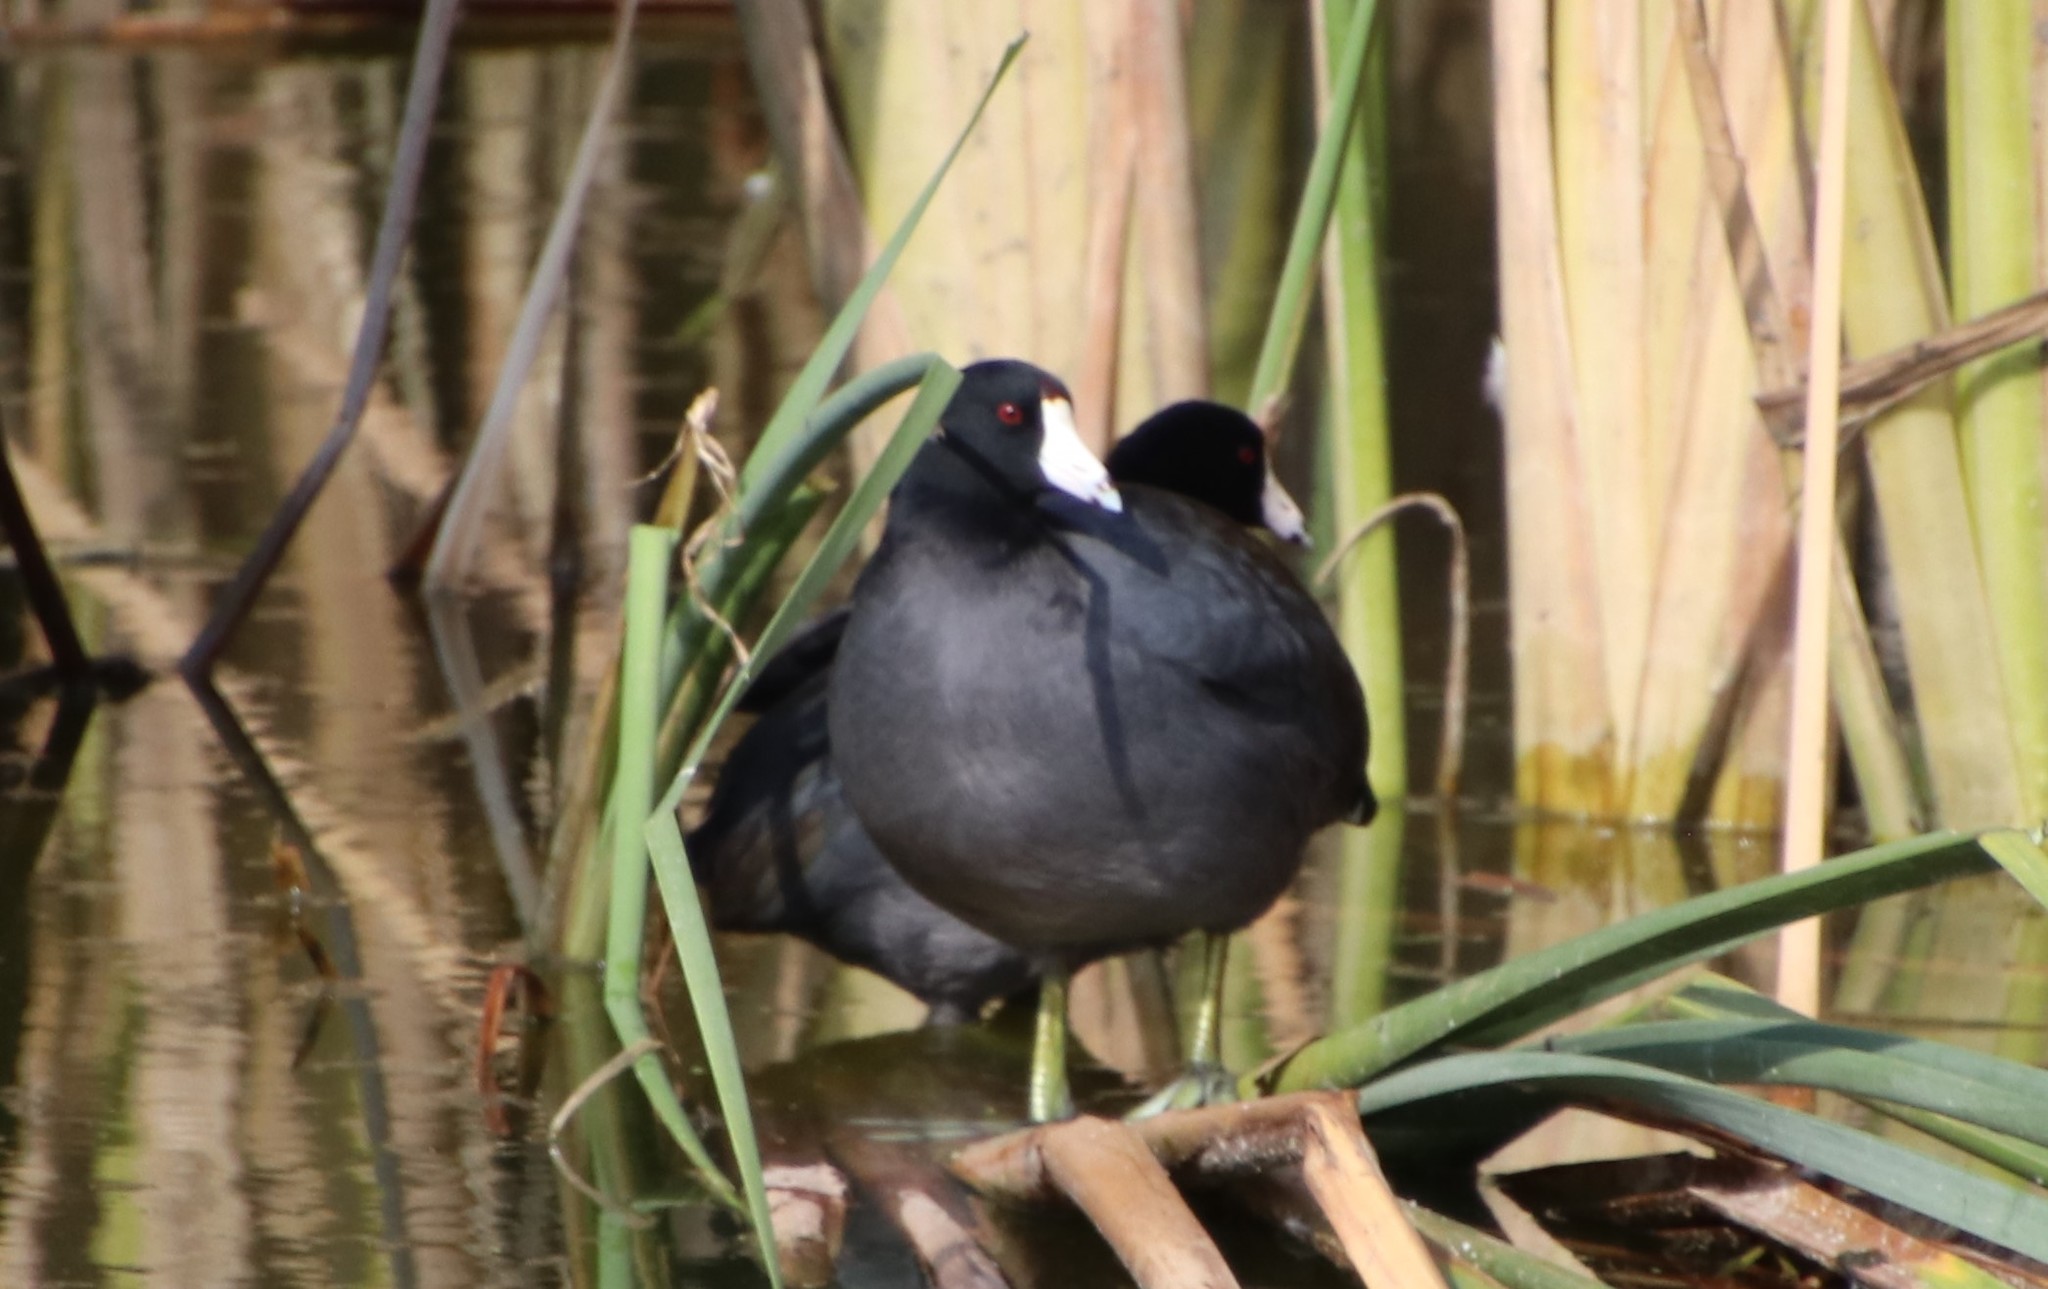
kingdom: Animalia
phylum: Chordata
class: Aves
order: Gruiformes
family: Rallidae
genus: Fulica
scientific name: Fulica americana
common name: American coot
